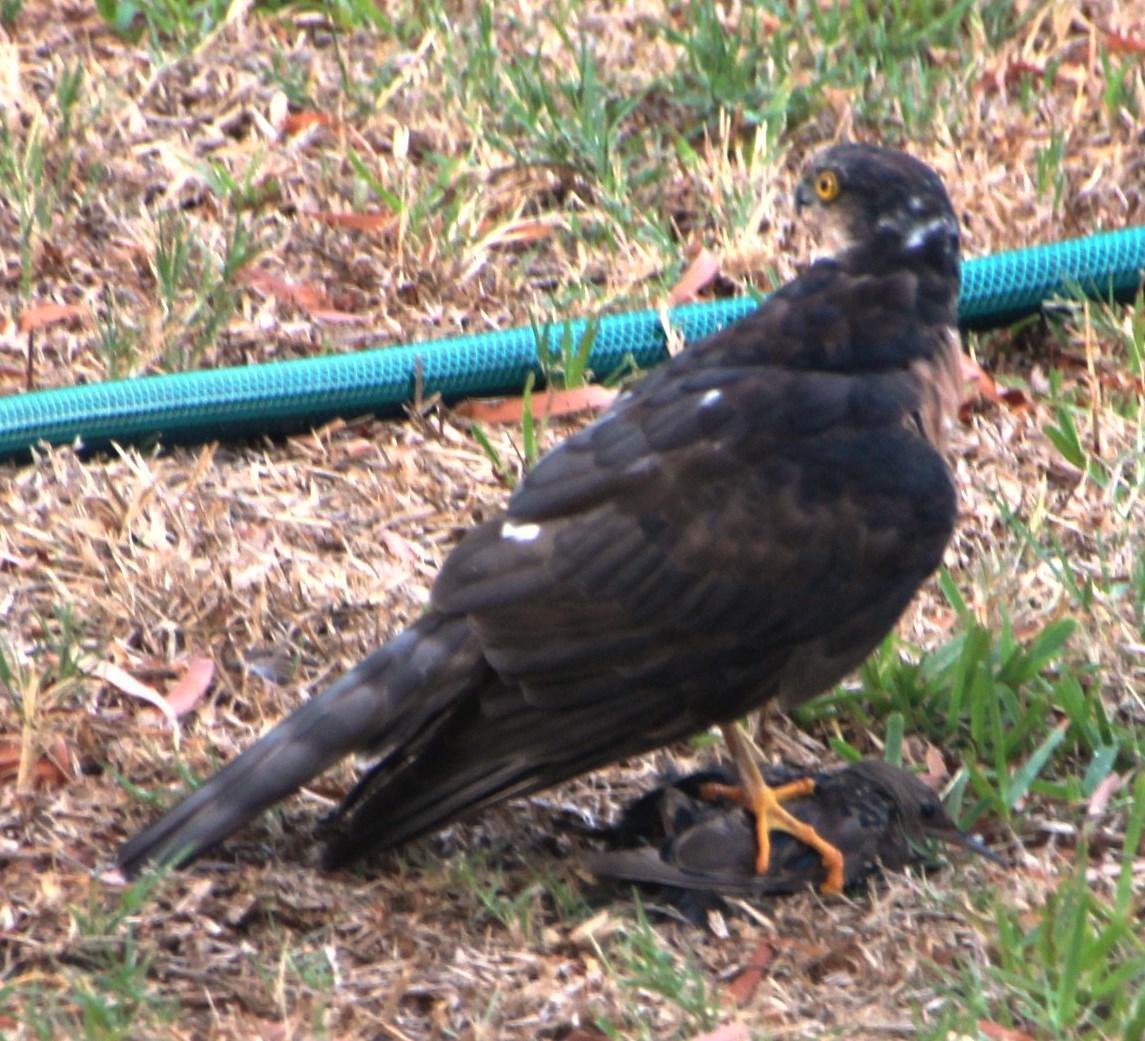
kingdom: Animalia
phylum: Chordata
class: Aves
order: Accipitriformes
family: Accipitridae
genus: Accipiter
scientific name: Accipiter rufiventris
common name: Rufous-breasted sparrowhawk
